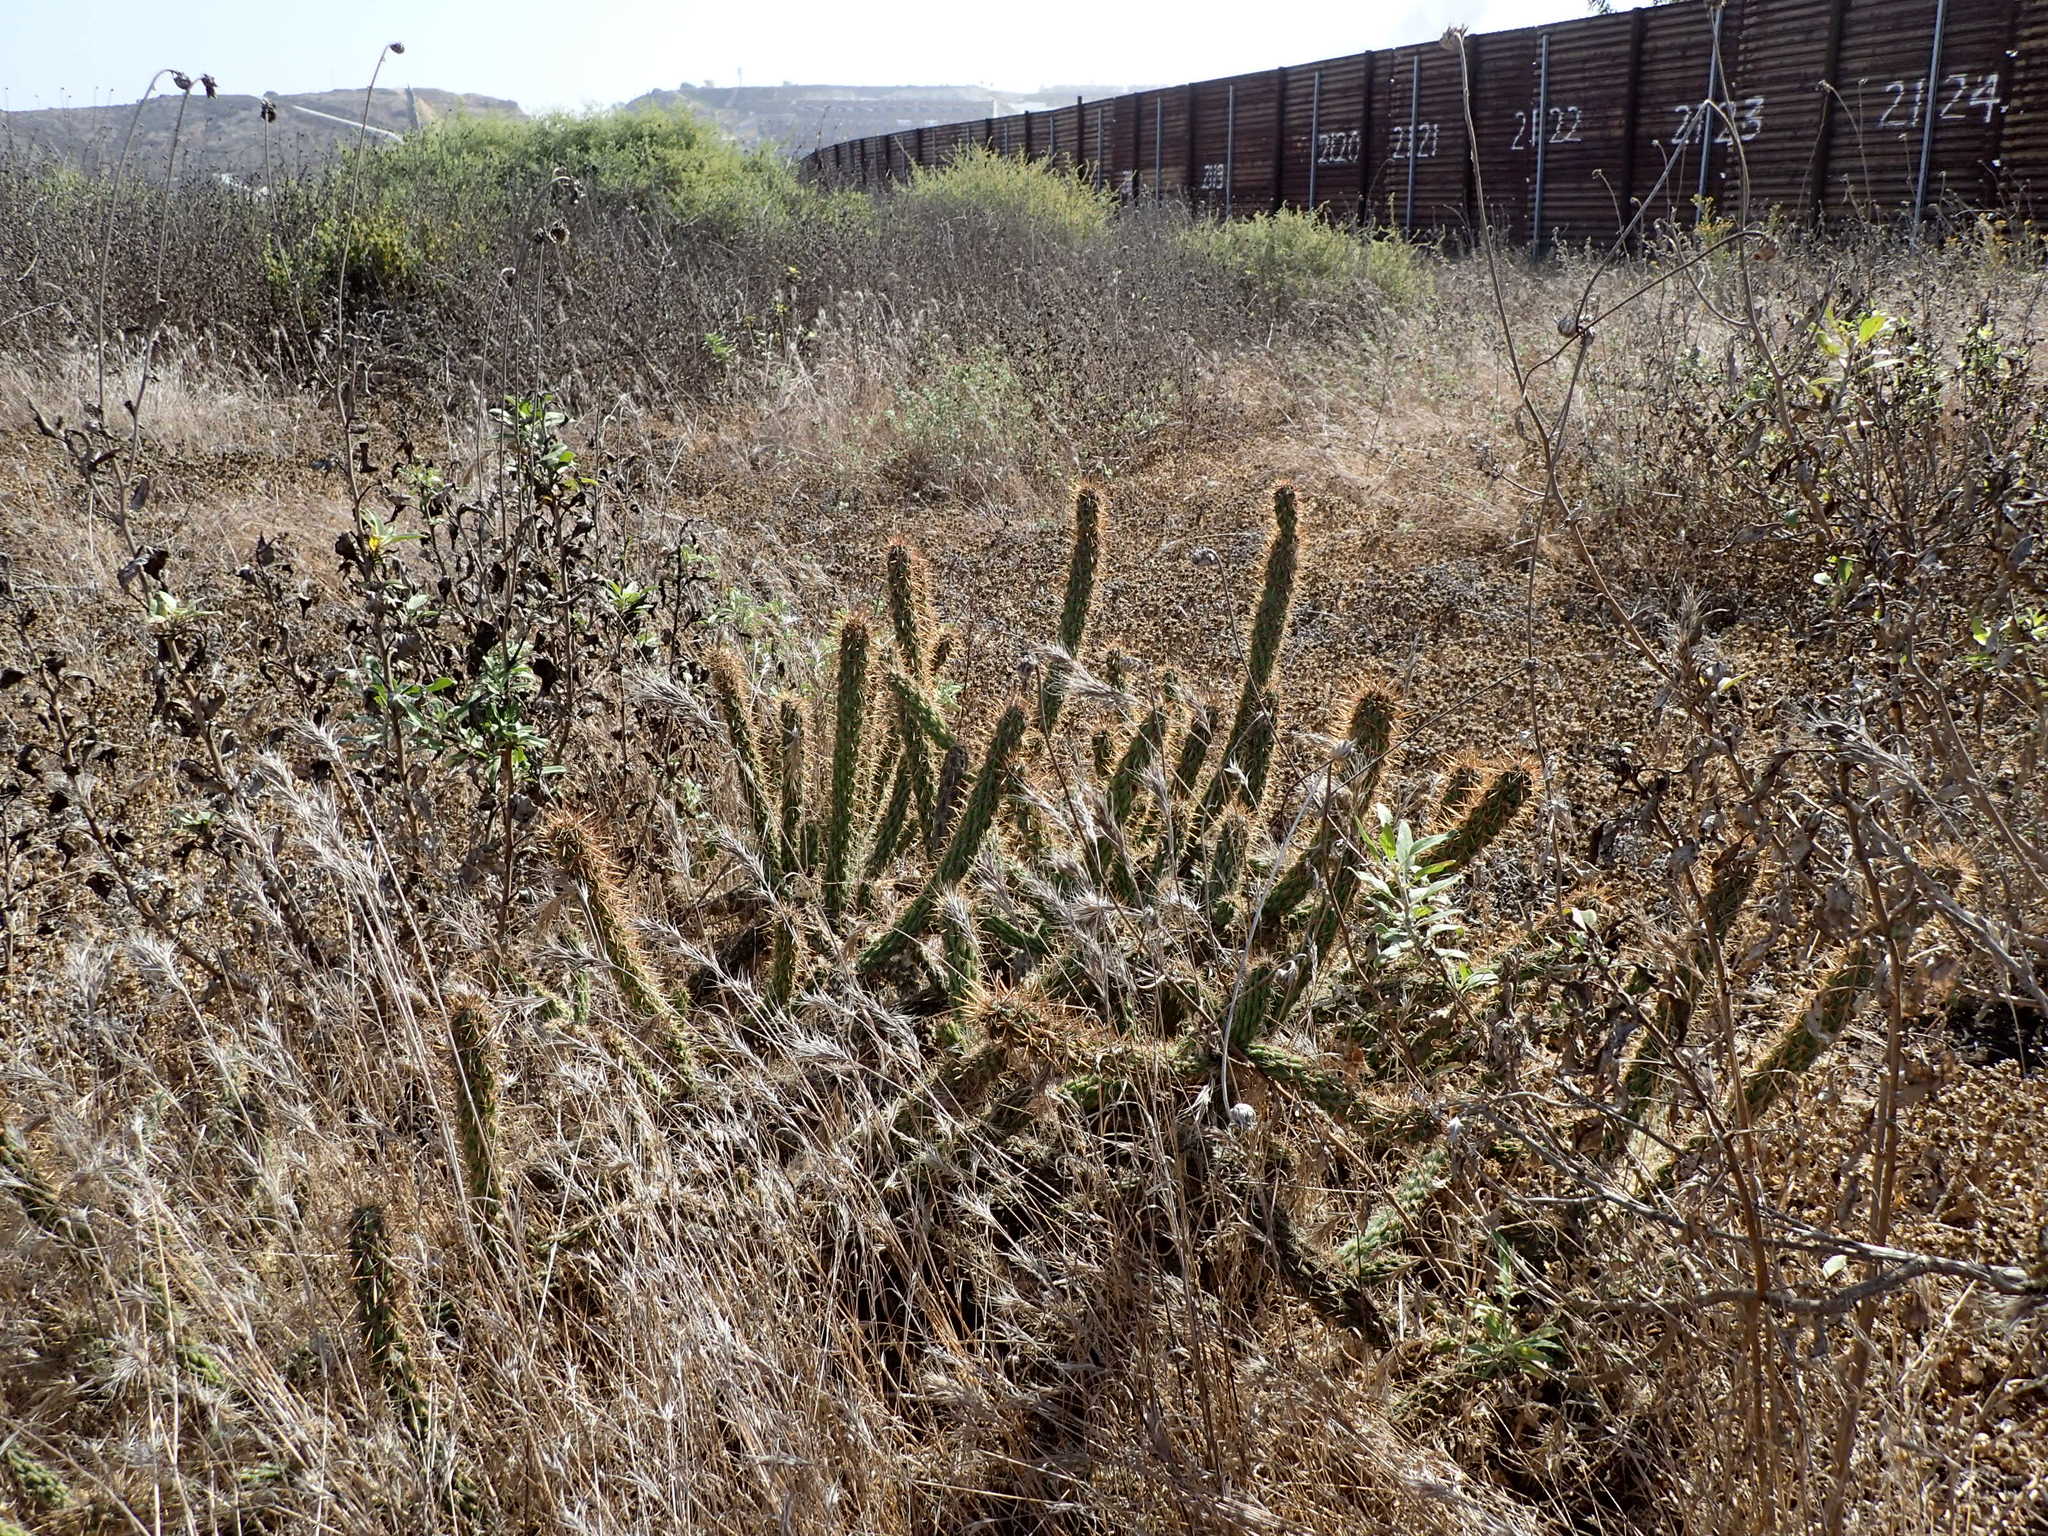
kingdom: Plantae
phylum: Tracheophyta
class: Magnoliopsida
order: Caryophyllales
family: Cactaceae
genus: Cylindropuntia
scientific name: Cylindropuntia californica
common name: Snake cholla
